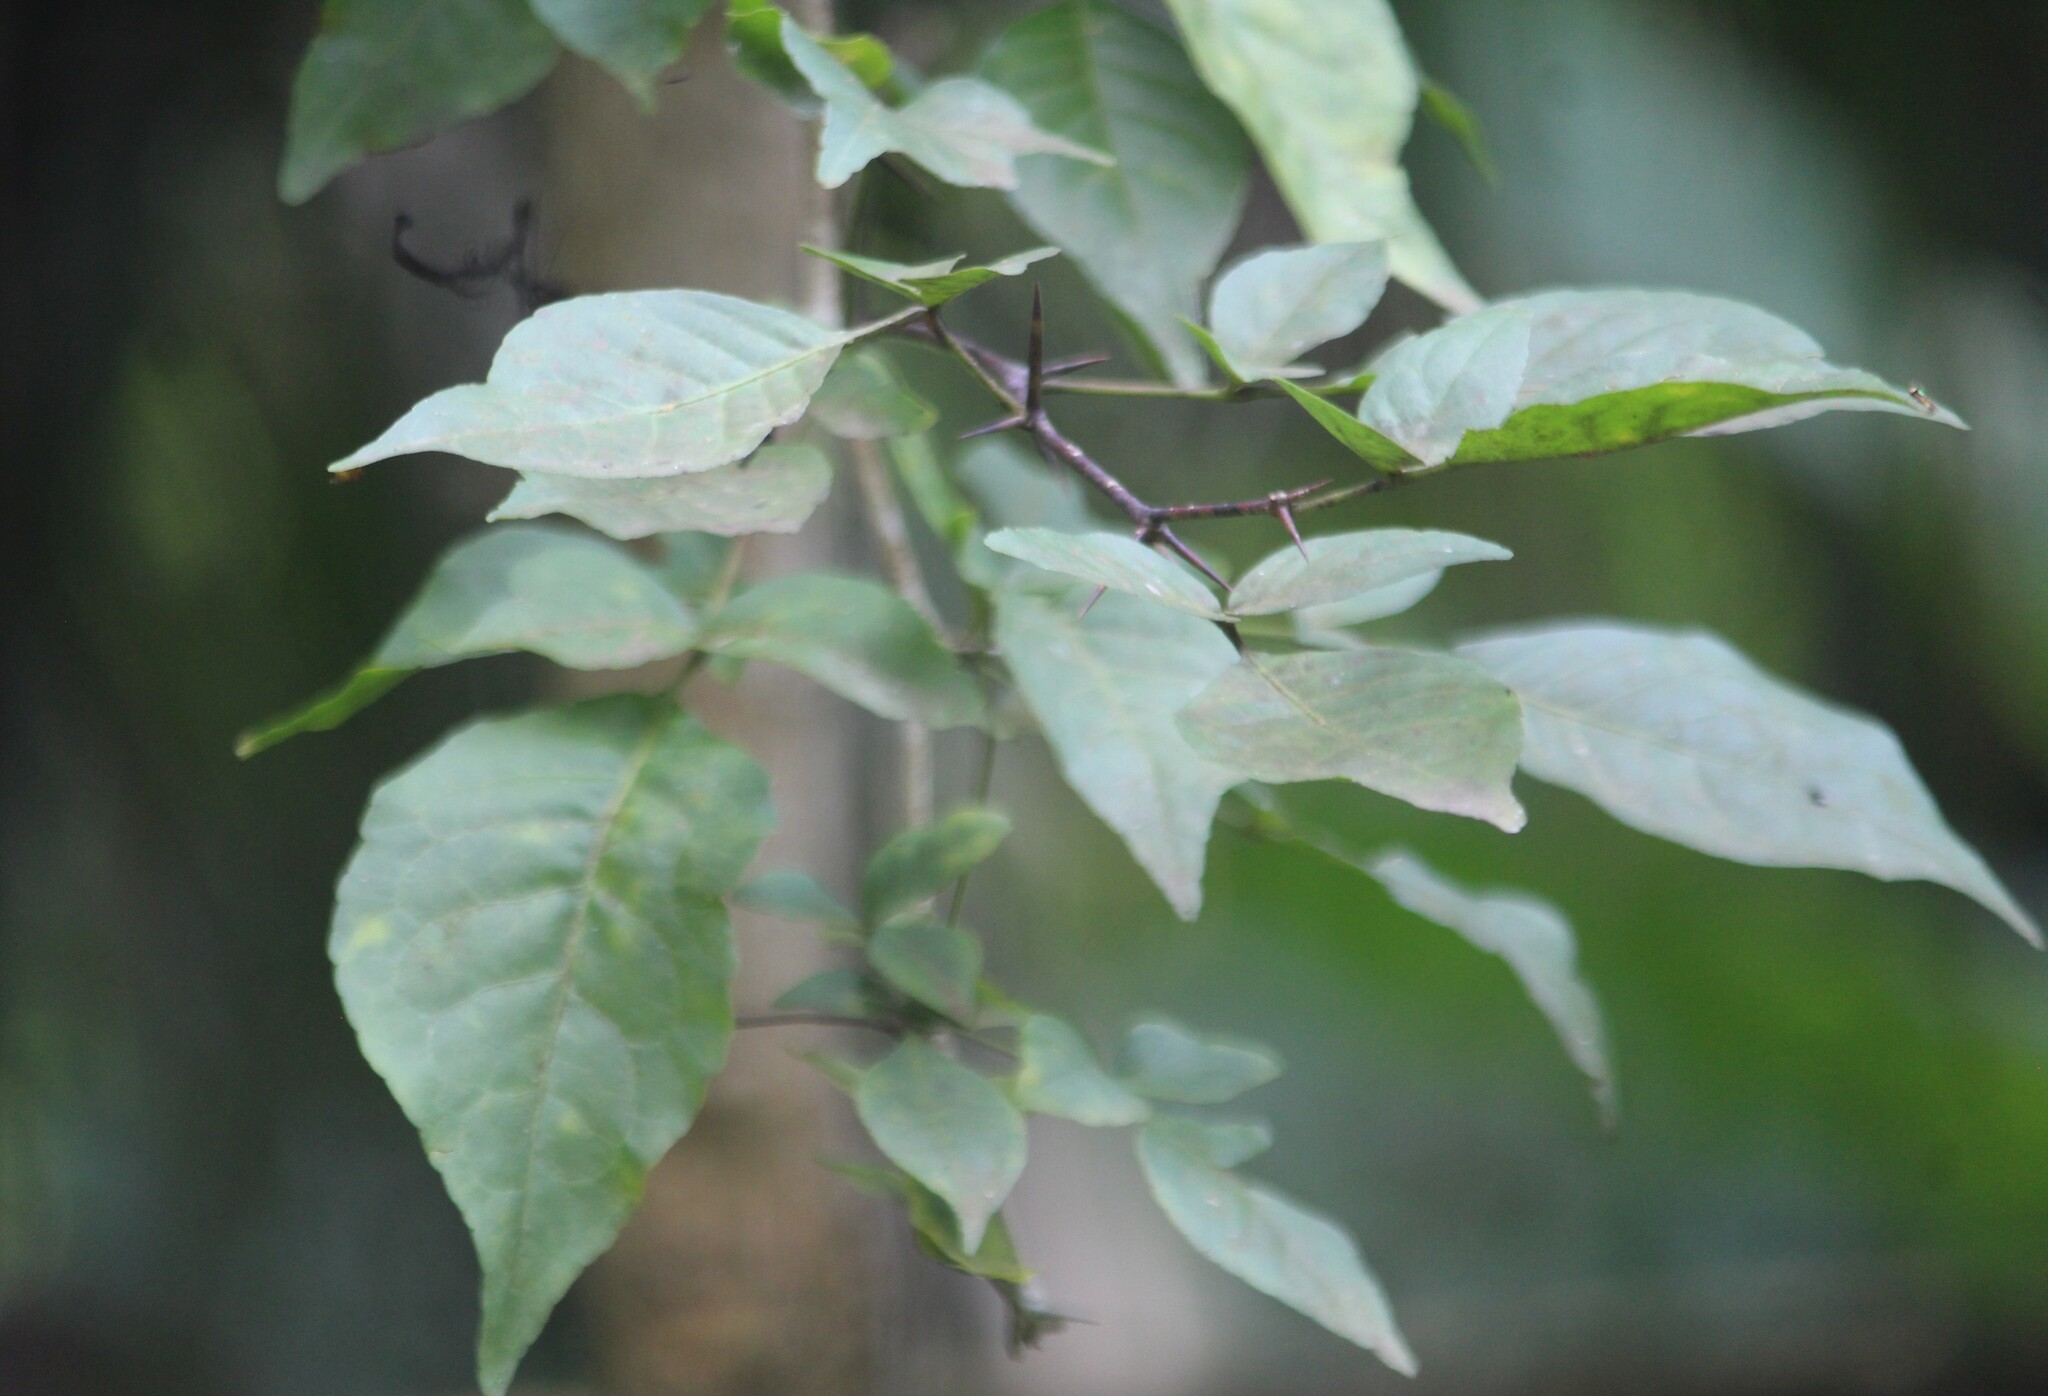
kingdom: Plantae
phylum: Tracheophyta
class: Magnoliopsida
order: Sapindales
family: Rutaceae
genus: Aegle
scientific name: Aegle marmelos
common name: Bael
